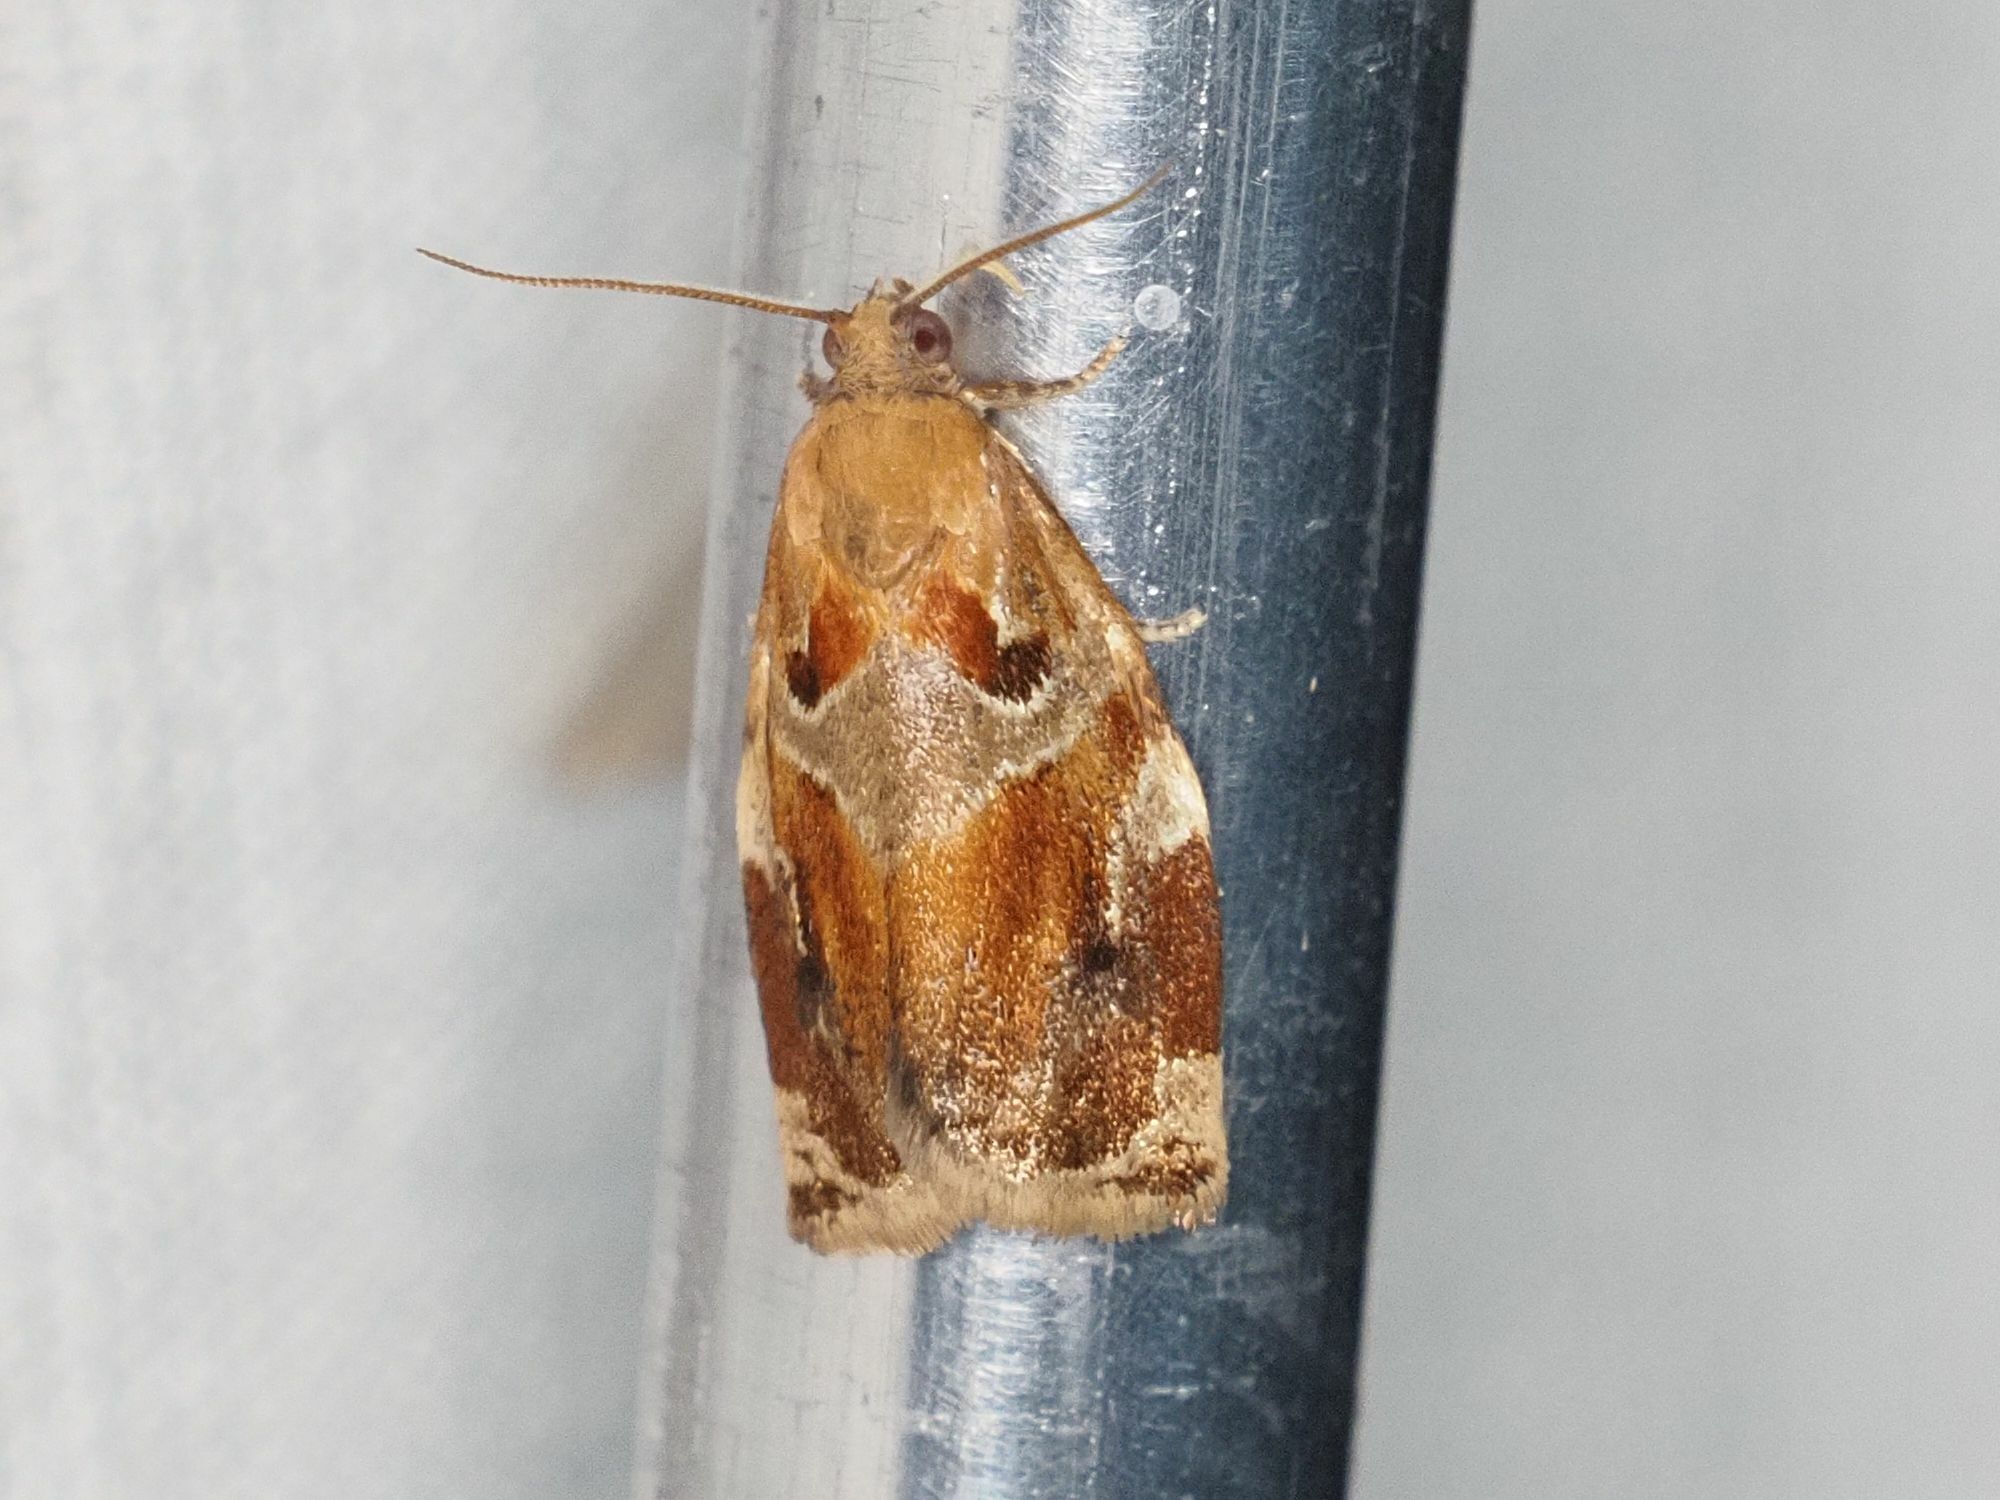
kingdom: Animalia
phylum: Arthropoda
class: Insecta
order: Lepidoptera
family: Tortricidae
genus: Archips
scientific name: Archips xylosteana
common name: Variegated golden tortrix
